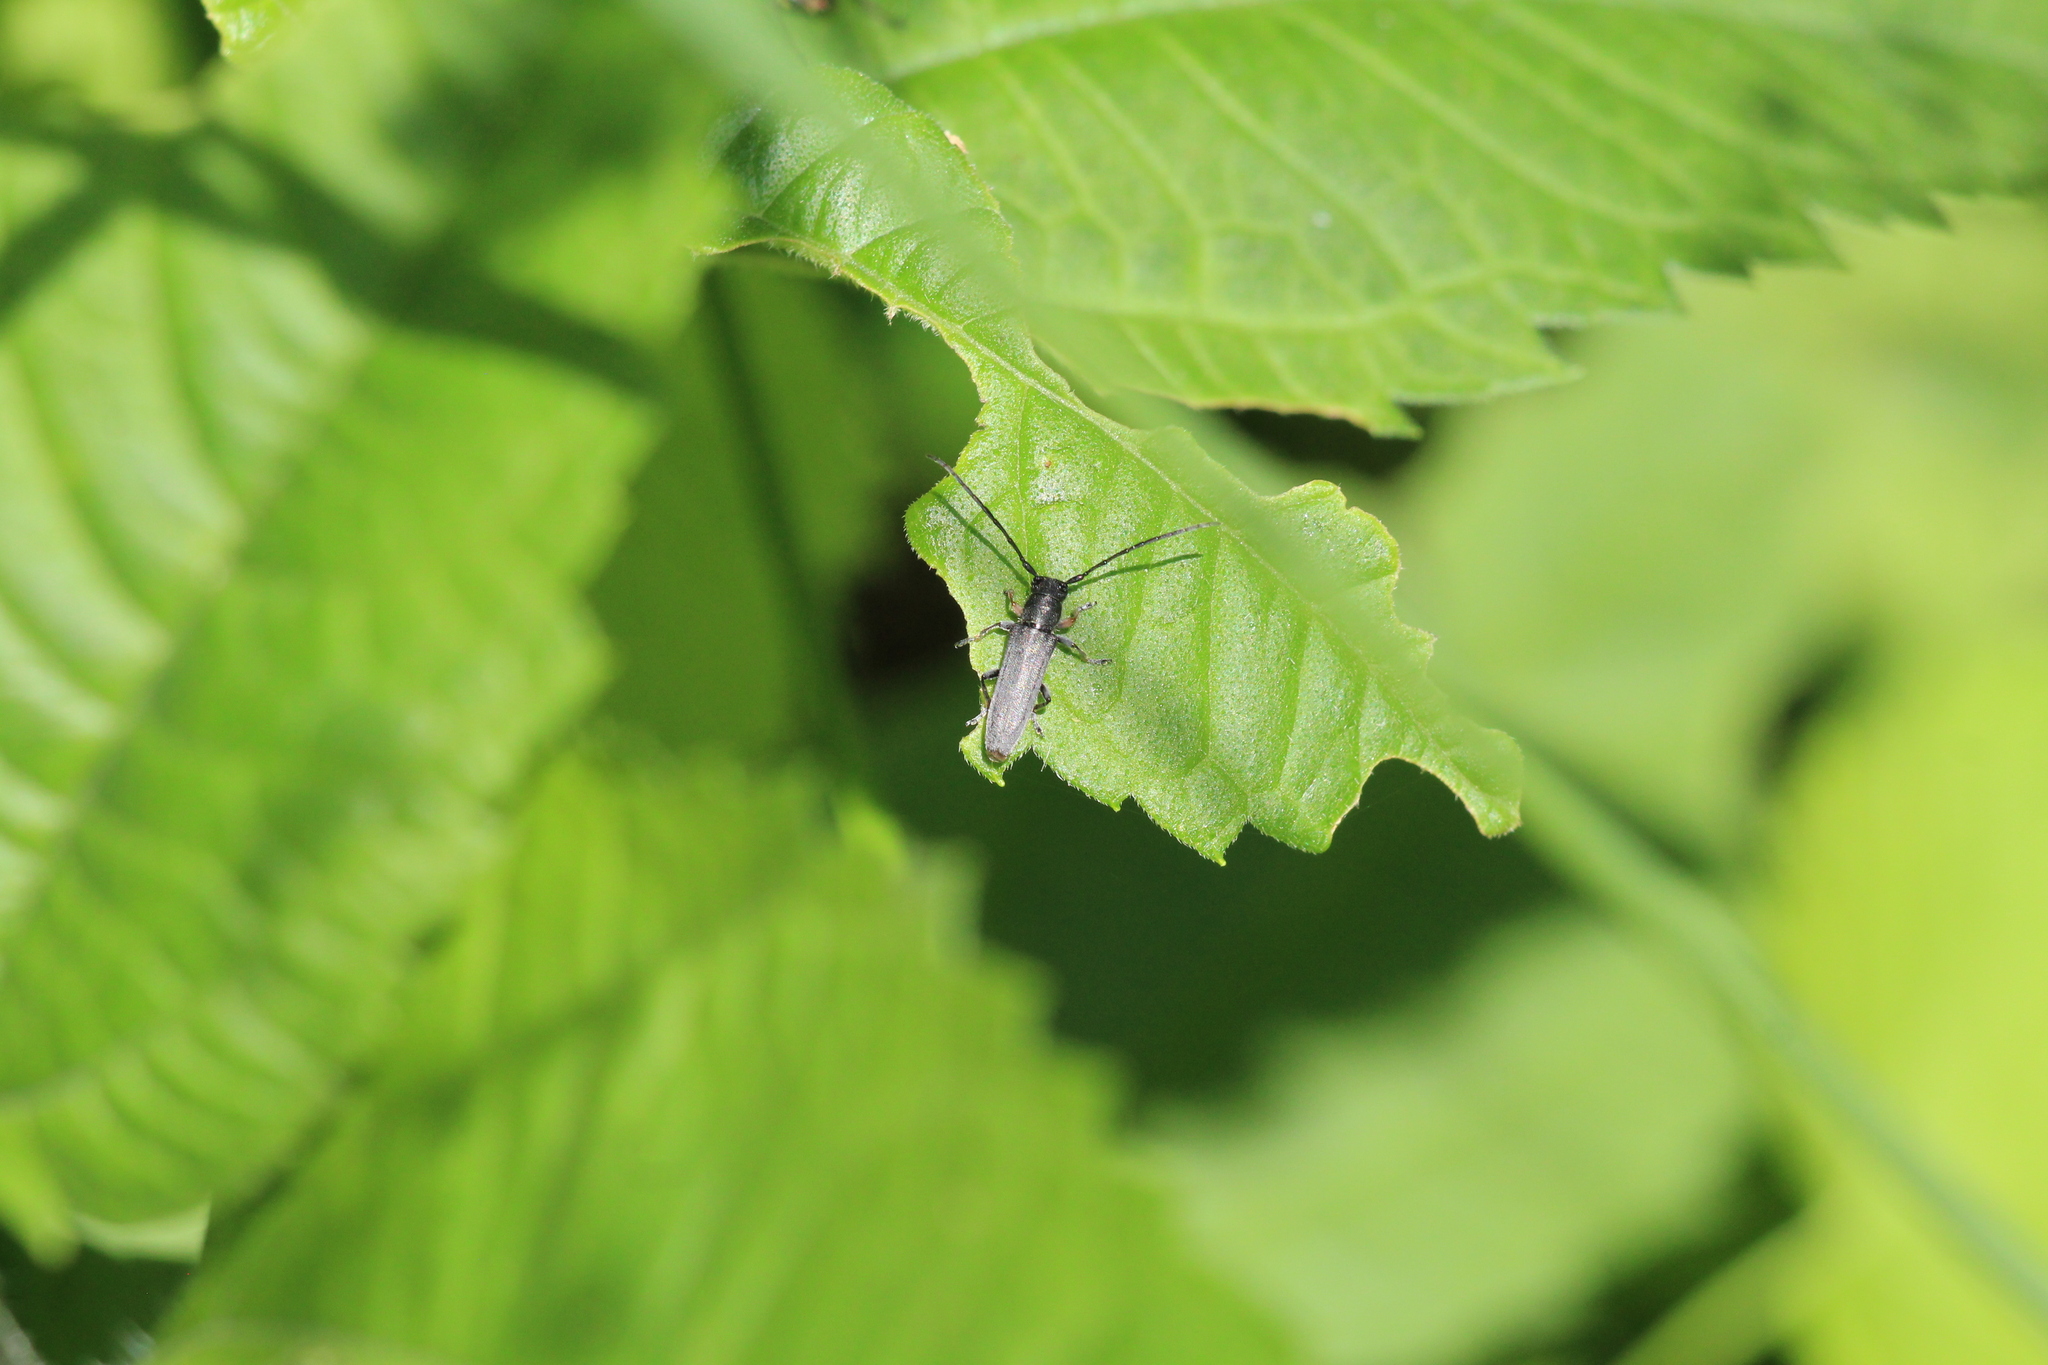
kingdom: Animalia
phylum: Arthropoda
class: Insecta
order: Coleoptera
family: Cerambycidae
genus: Phytoecia
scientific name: Phytoecia cylindrica
